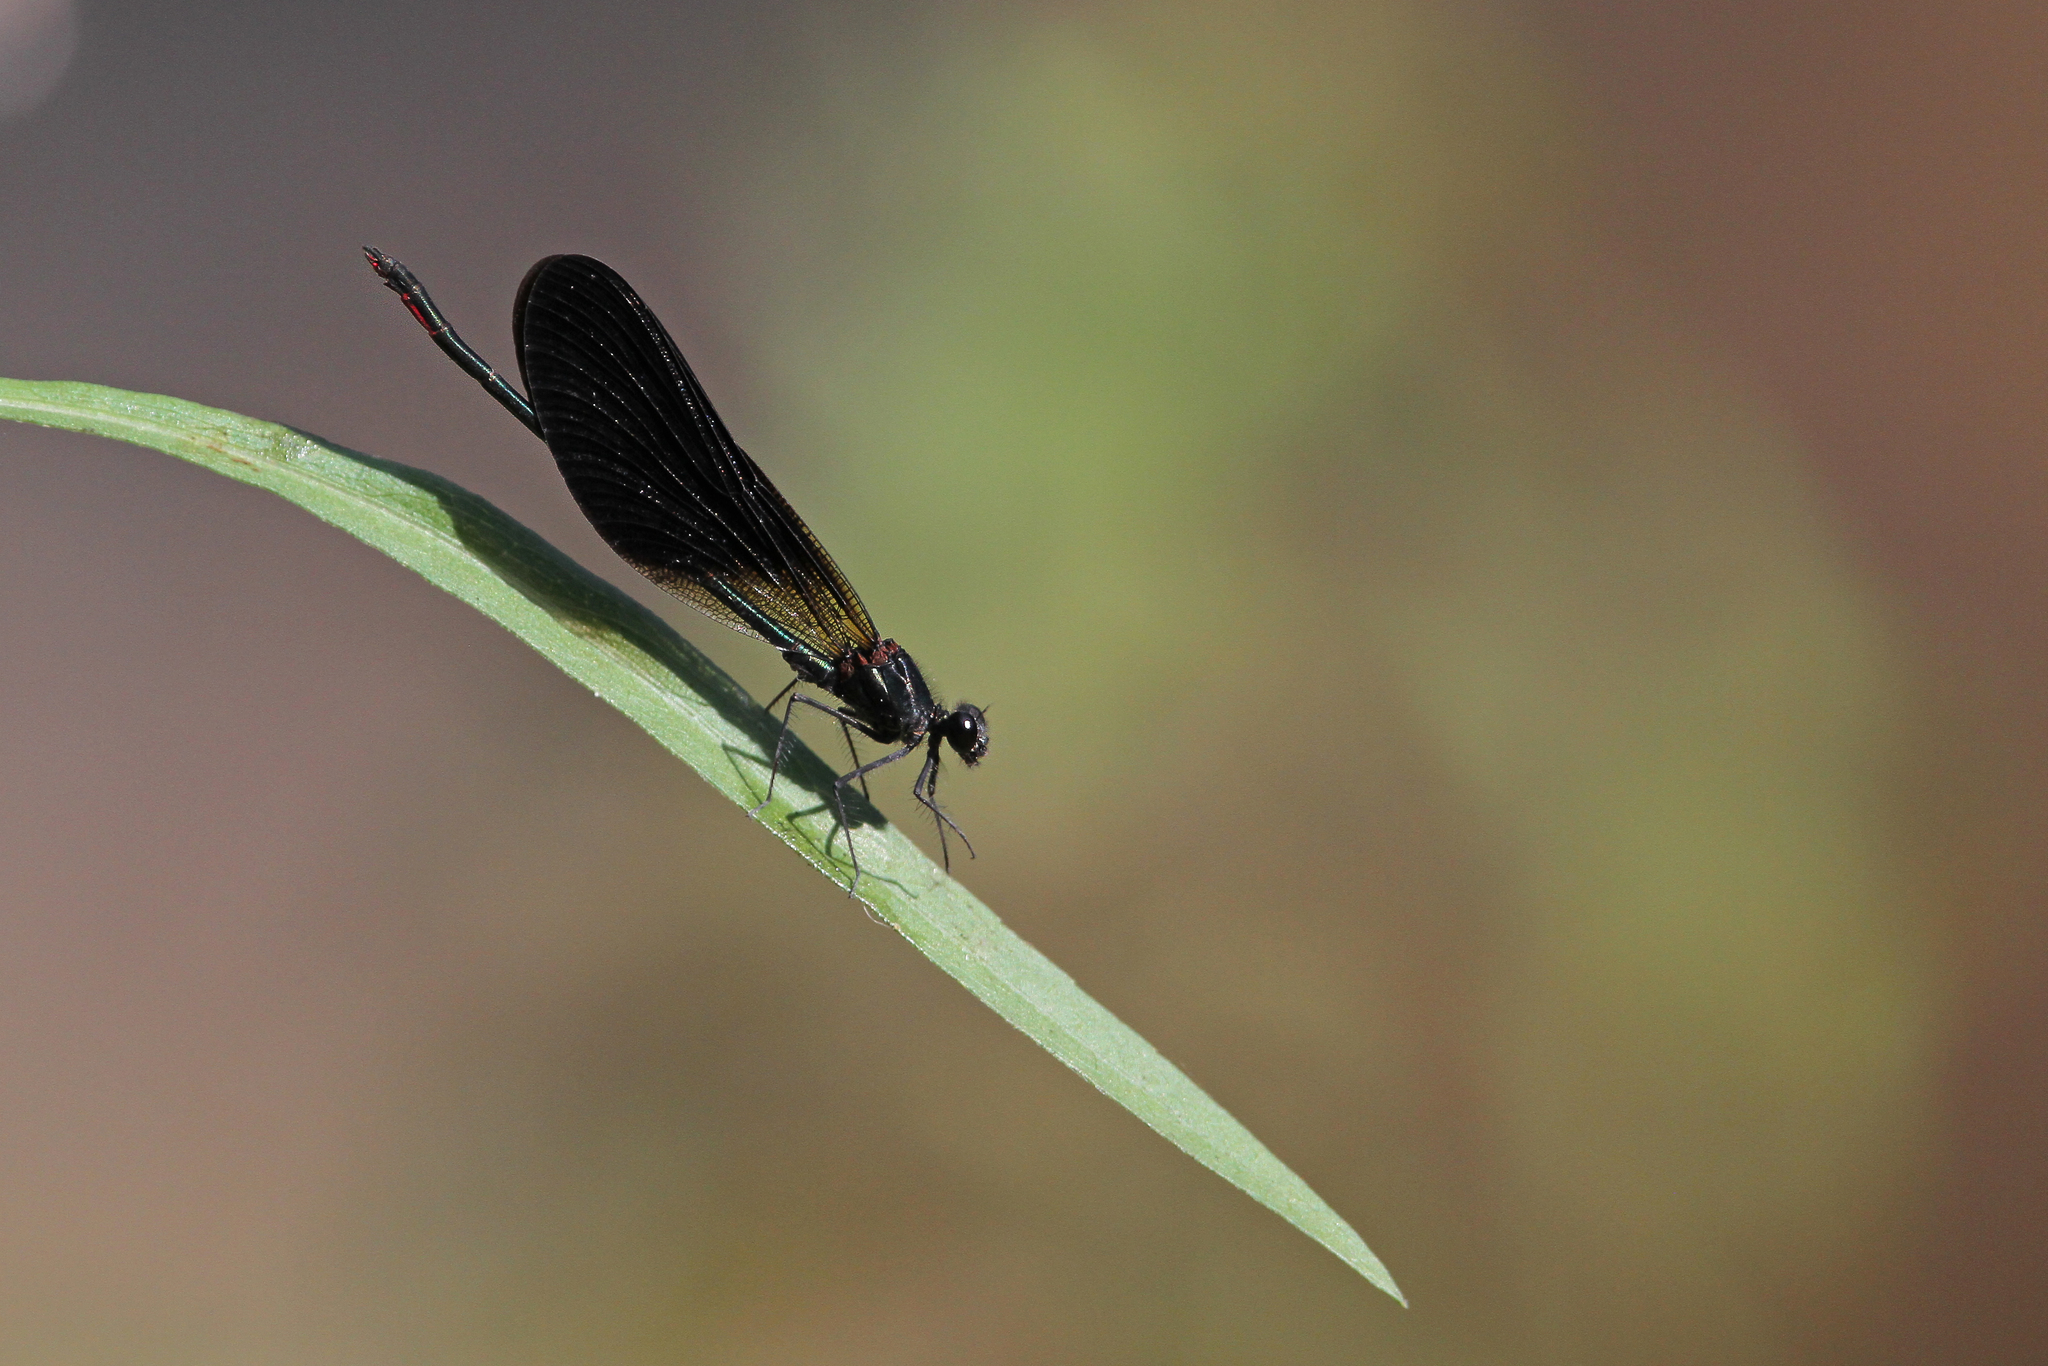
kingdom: Animalia
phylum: Arthropoda
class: Insecta
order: Odonata
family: Calopterygidae
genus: Calopteryx
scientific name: Calopteryx haemorrhoidalis
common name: Copper demoiselle
